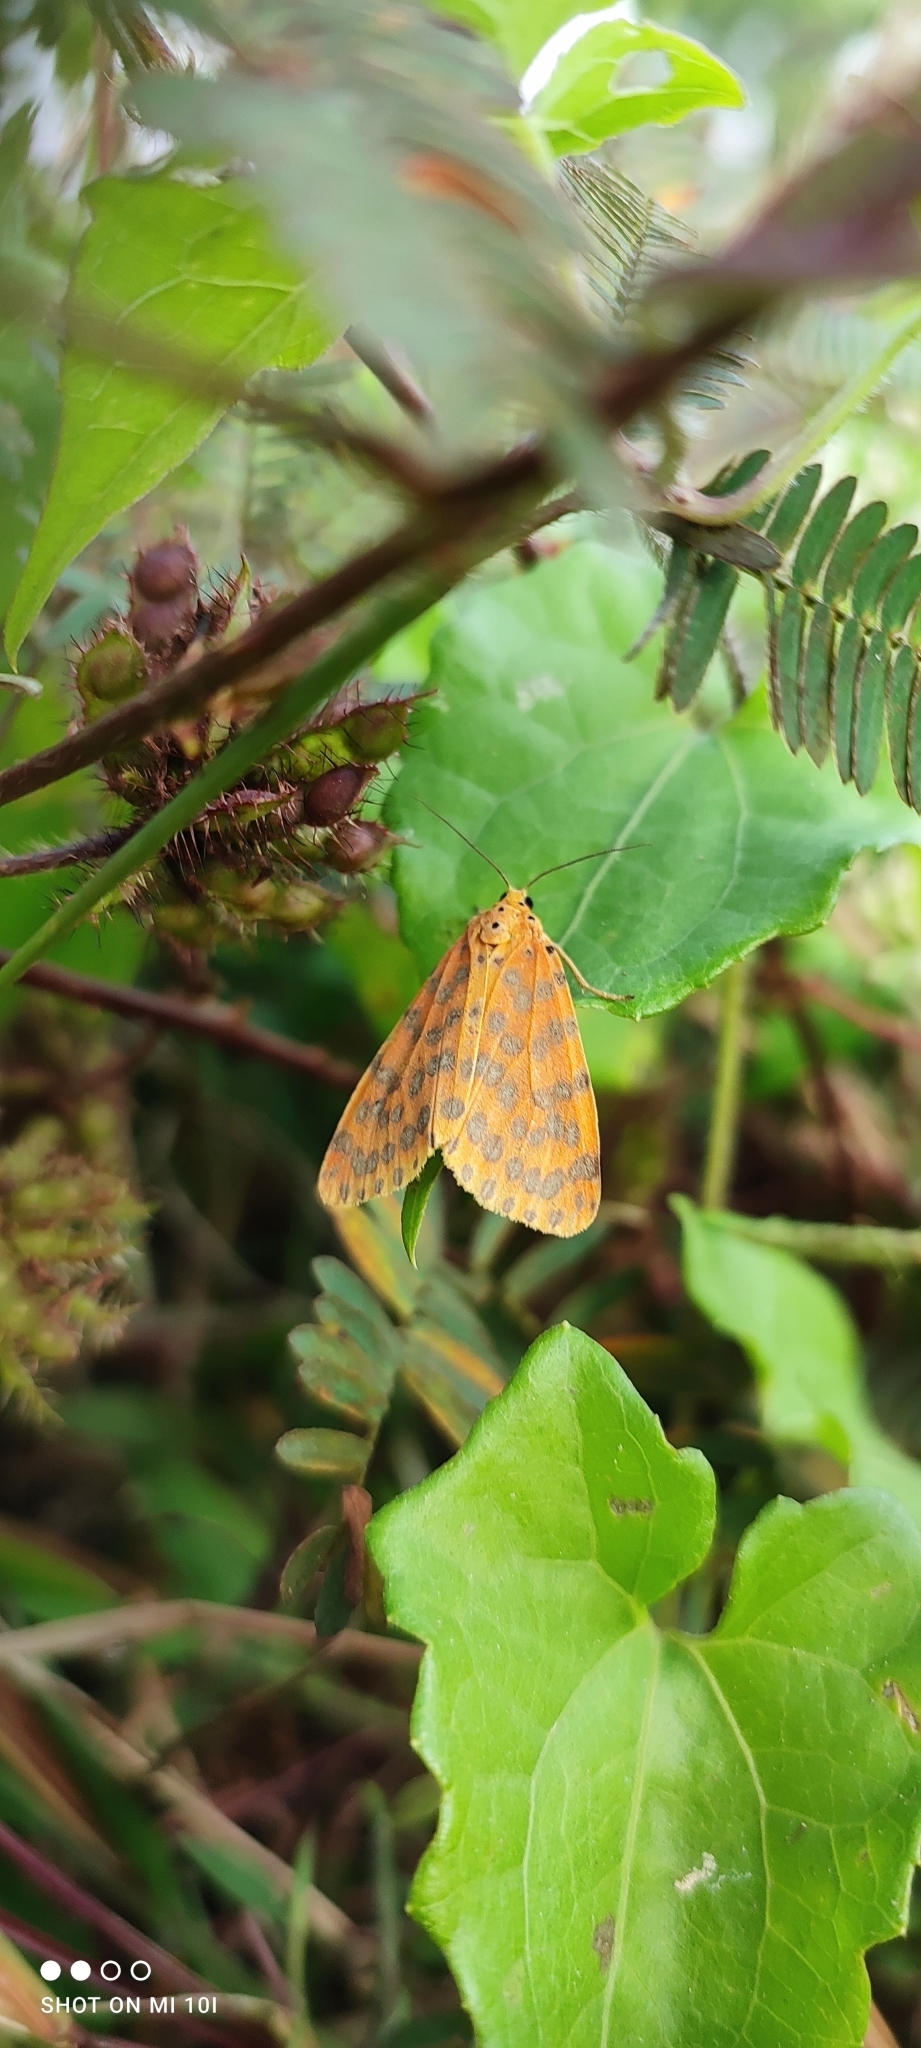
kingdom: Animalia
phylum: Arthropoda
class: Insecta
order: Lepidoptera
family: Erebidae
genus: Argina
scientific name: Argina astrea
